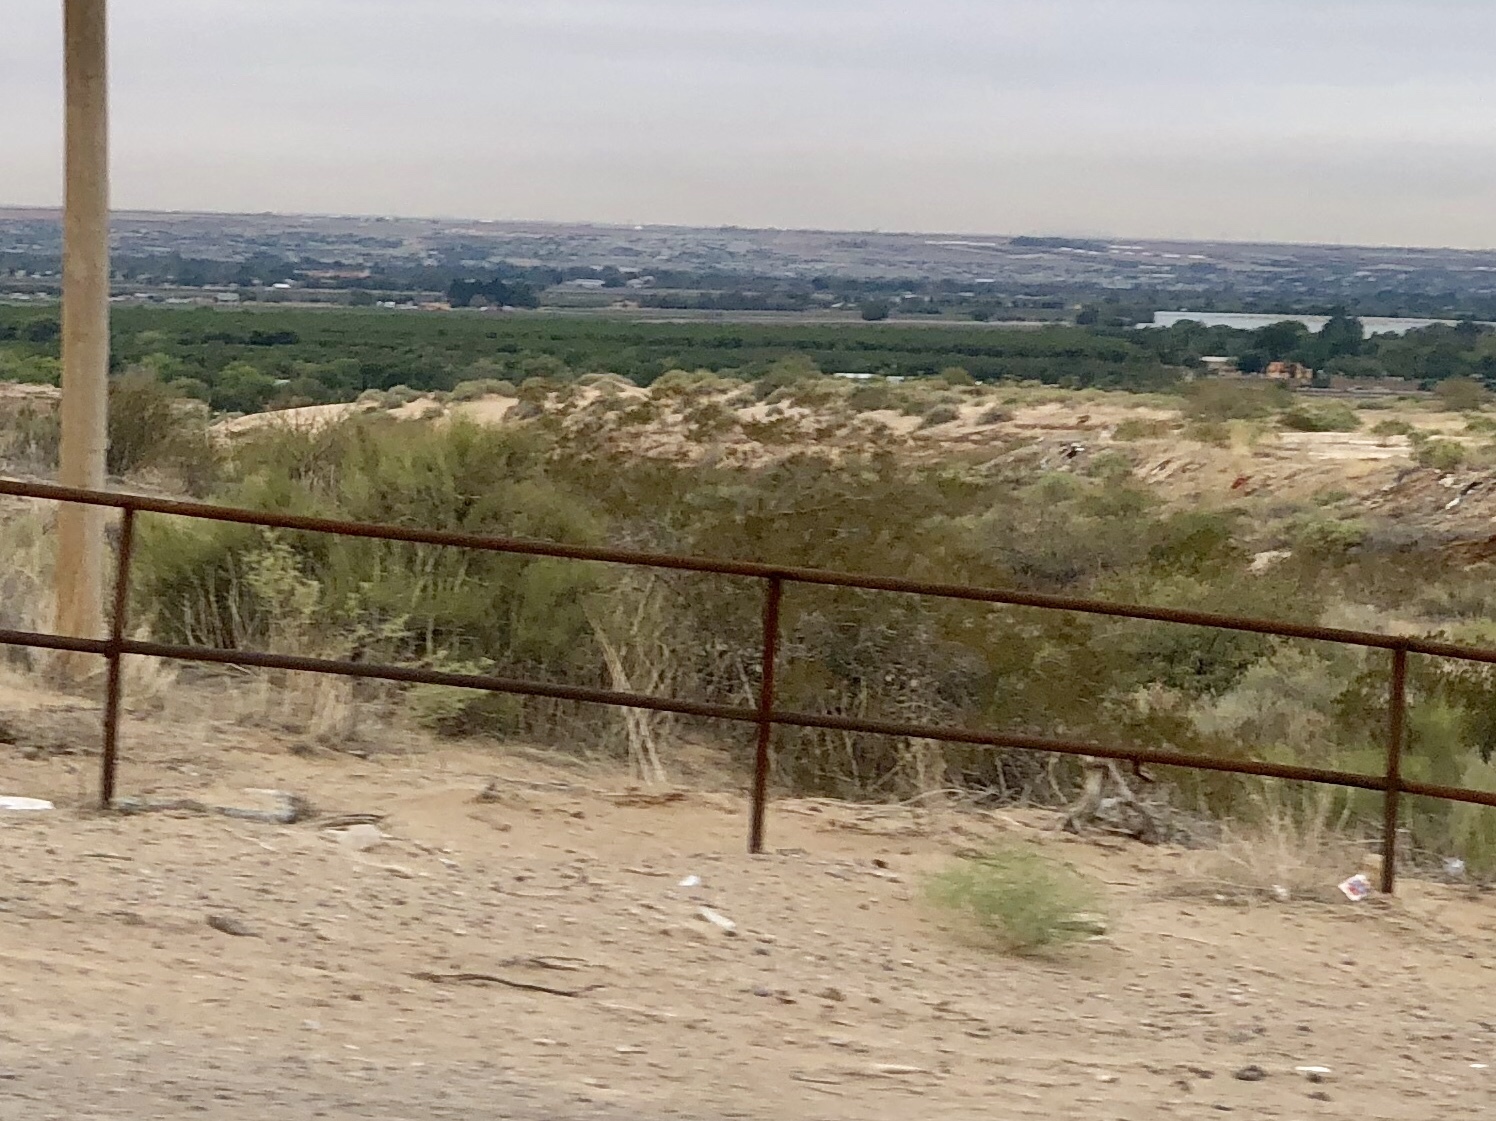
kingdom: Plantae
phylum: Tracheophyta
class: Magnoliopsida
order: Zygophyllales
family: Zygophyllaceae
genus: Larrea
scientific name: Larrea tridentata
